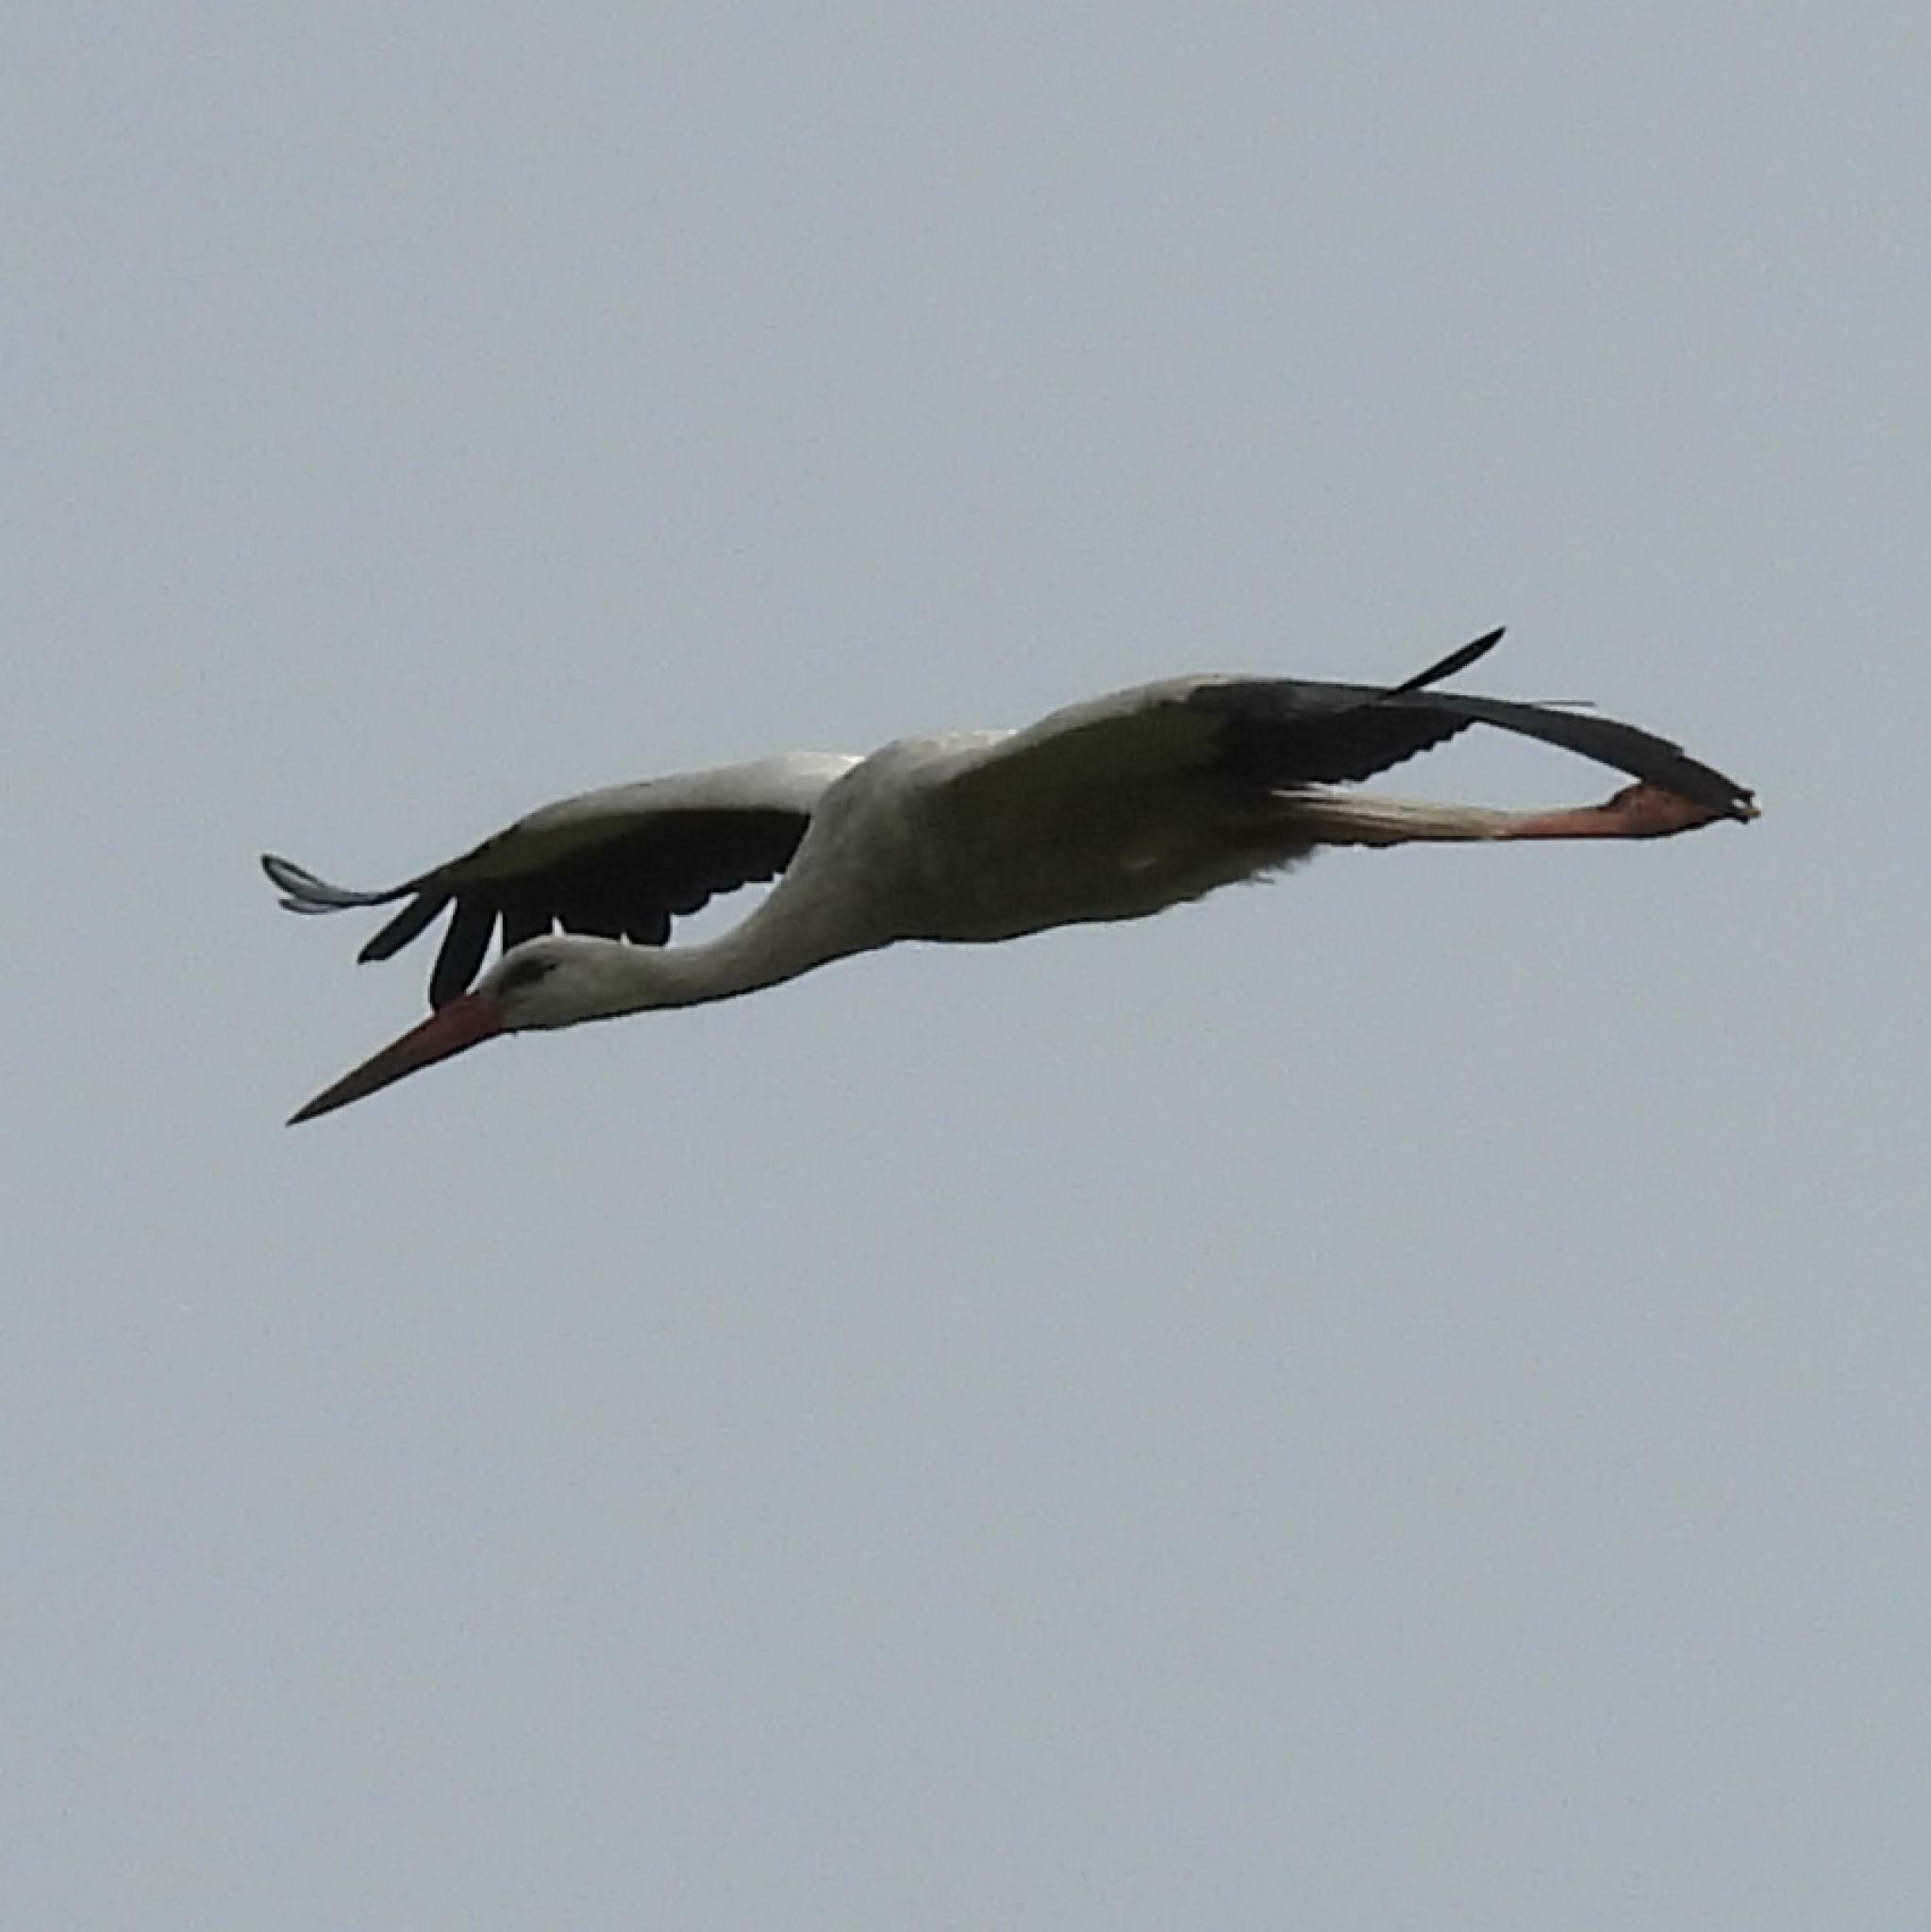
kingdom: Animalia
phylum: Chordata
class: Aves
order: Ciconiiformes
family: Ciconiidae
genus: Ciconia
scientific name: Ciconia ciconia
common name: White stork
